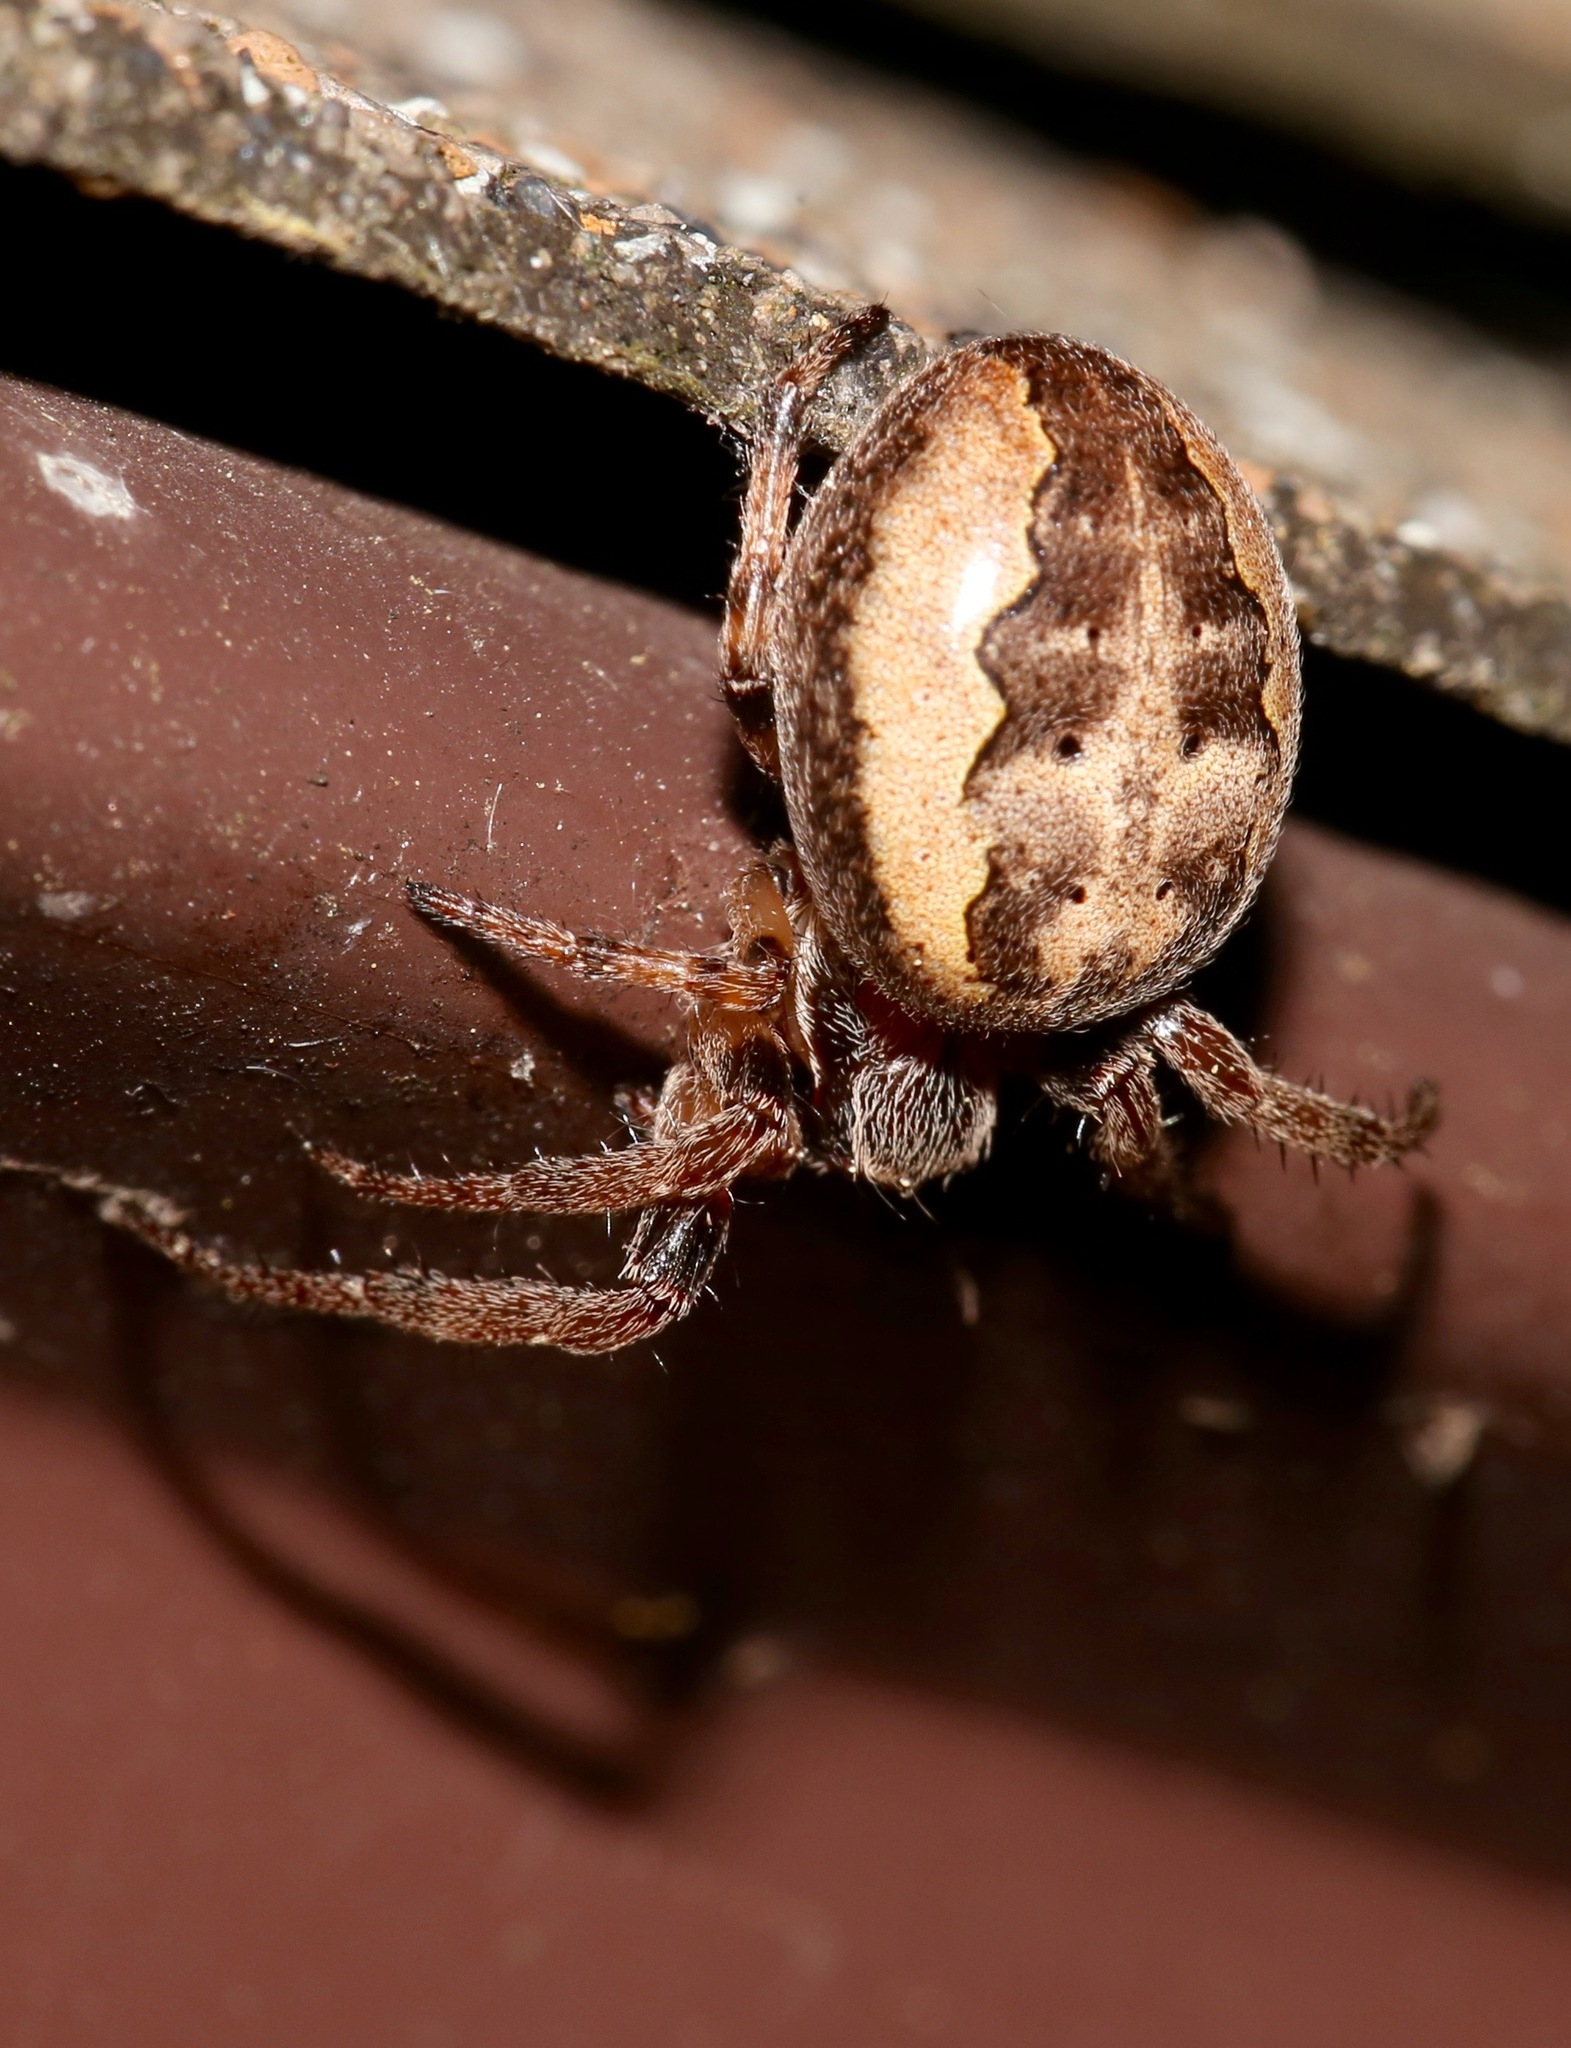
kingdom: Animalia
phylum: Arthropoda
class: Arachnida
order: Araneae
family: Araneidae
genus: Larinioides
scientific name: Larinioides cornutus
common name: Furrow orbweaver
